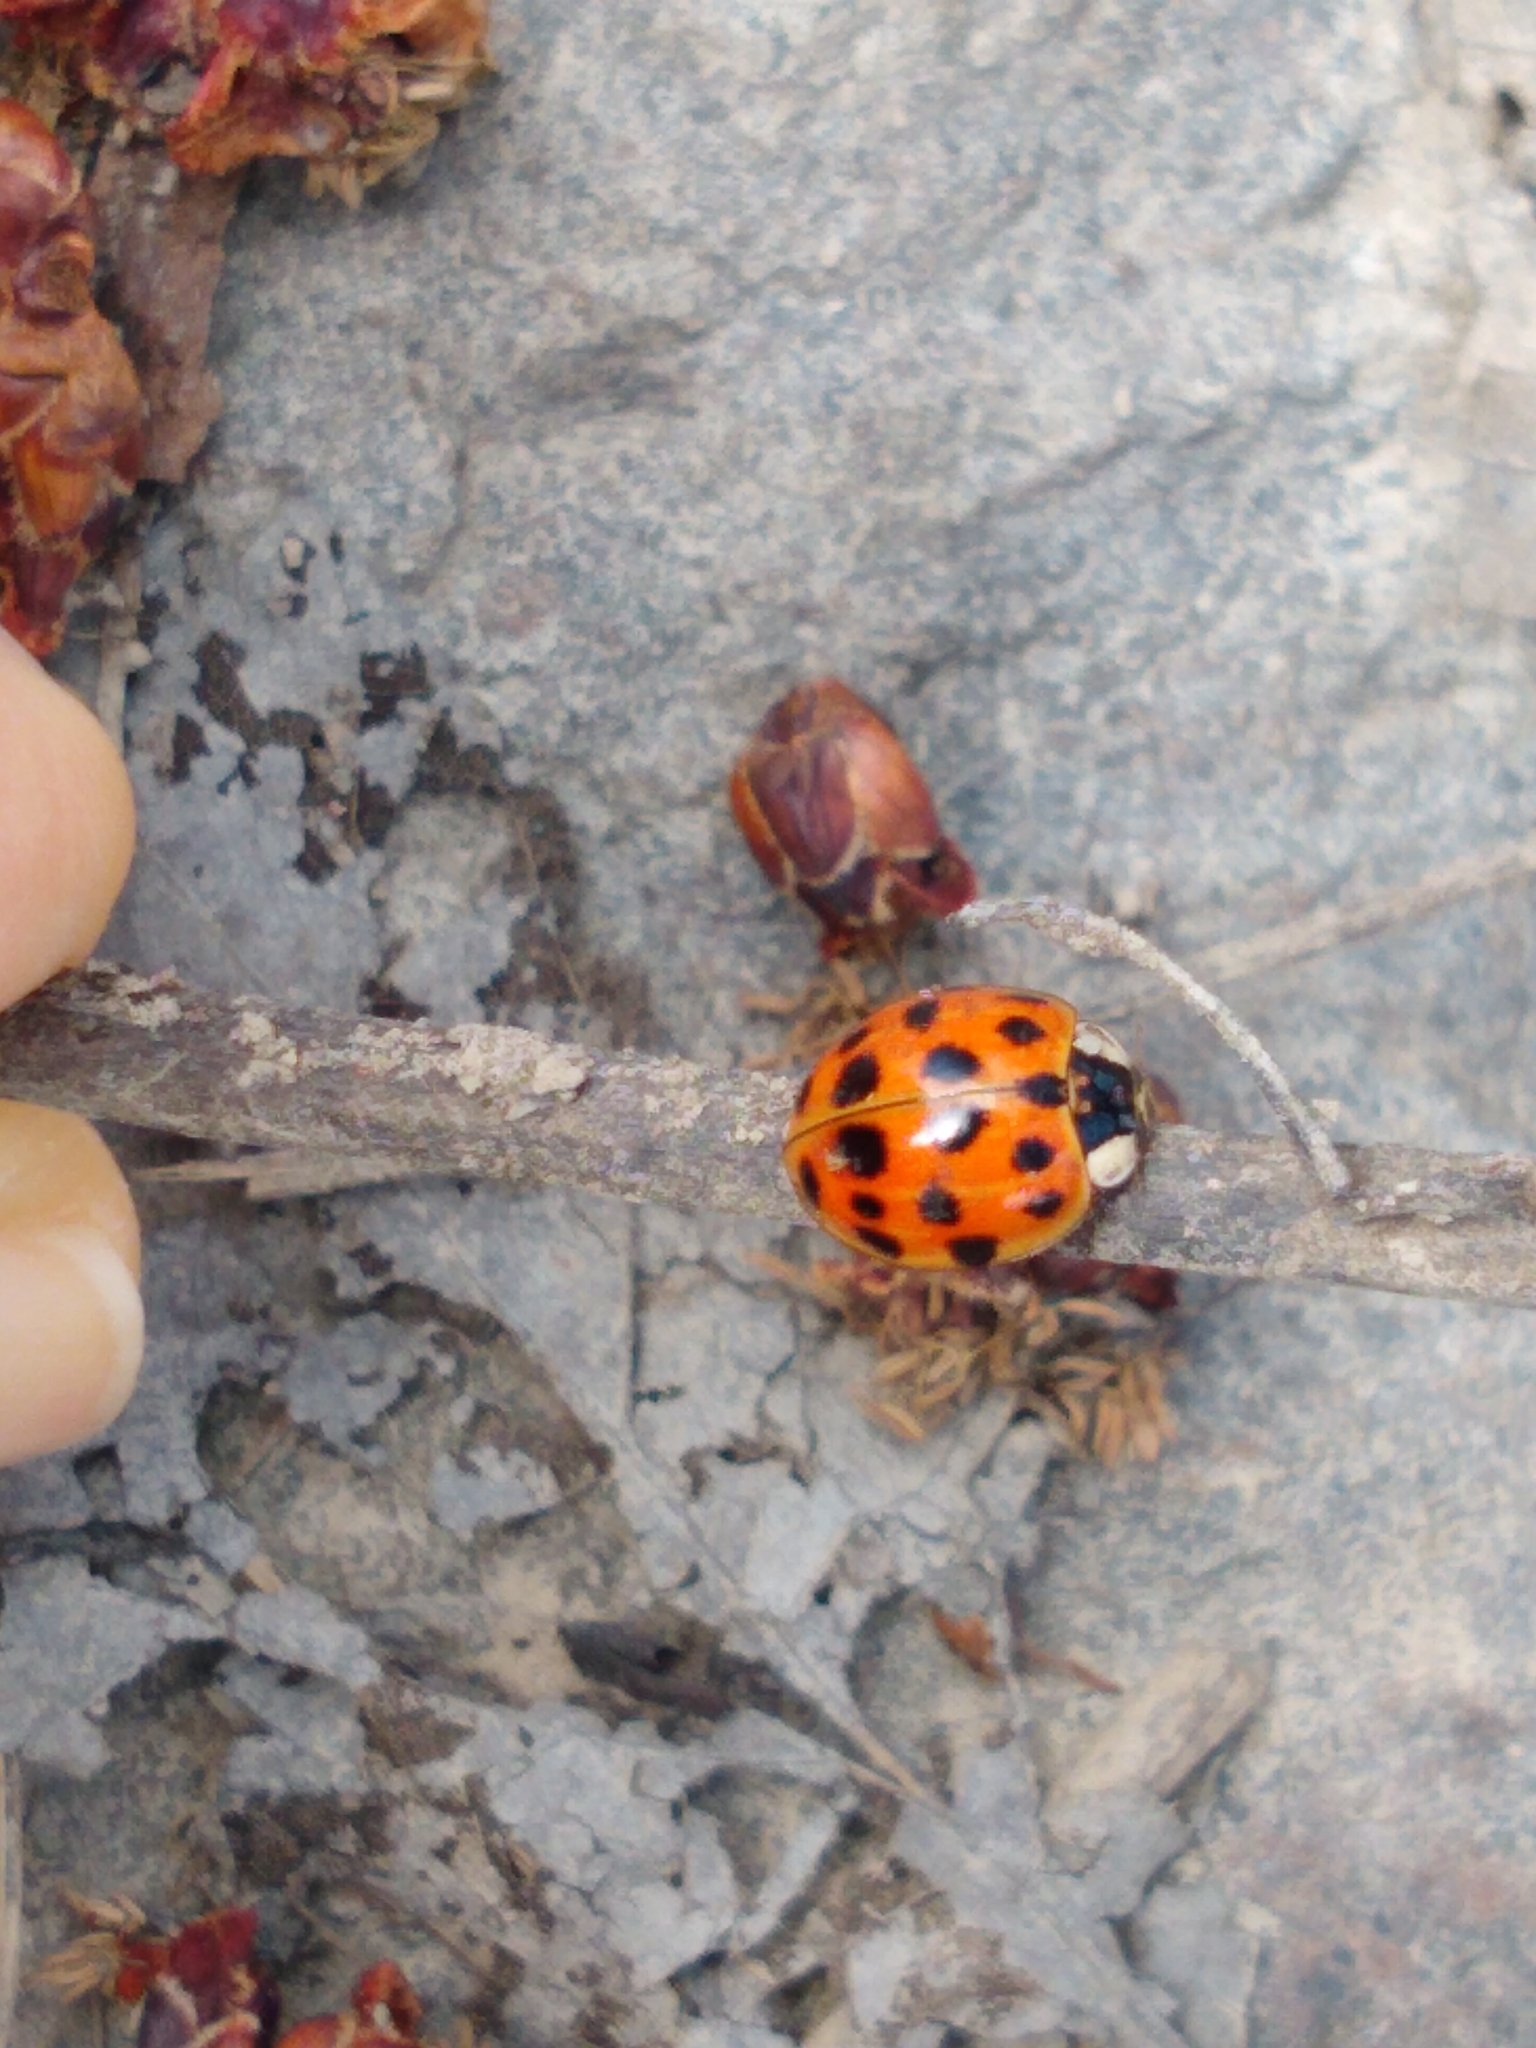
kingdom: Animalia
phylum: Arthropoda
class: Insecta
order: Coleoptera
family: Coccinellidae
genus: Harmonia
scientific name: Harmonia axyridis
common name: Harlequin ladybird
